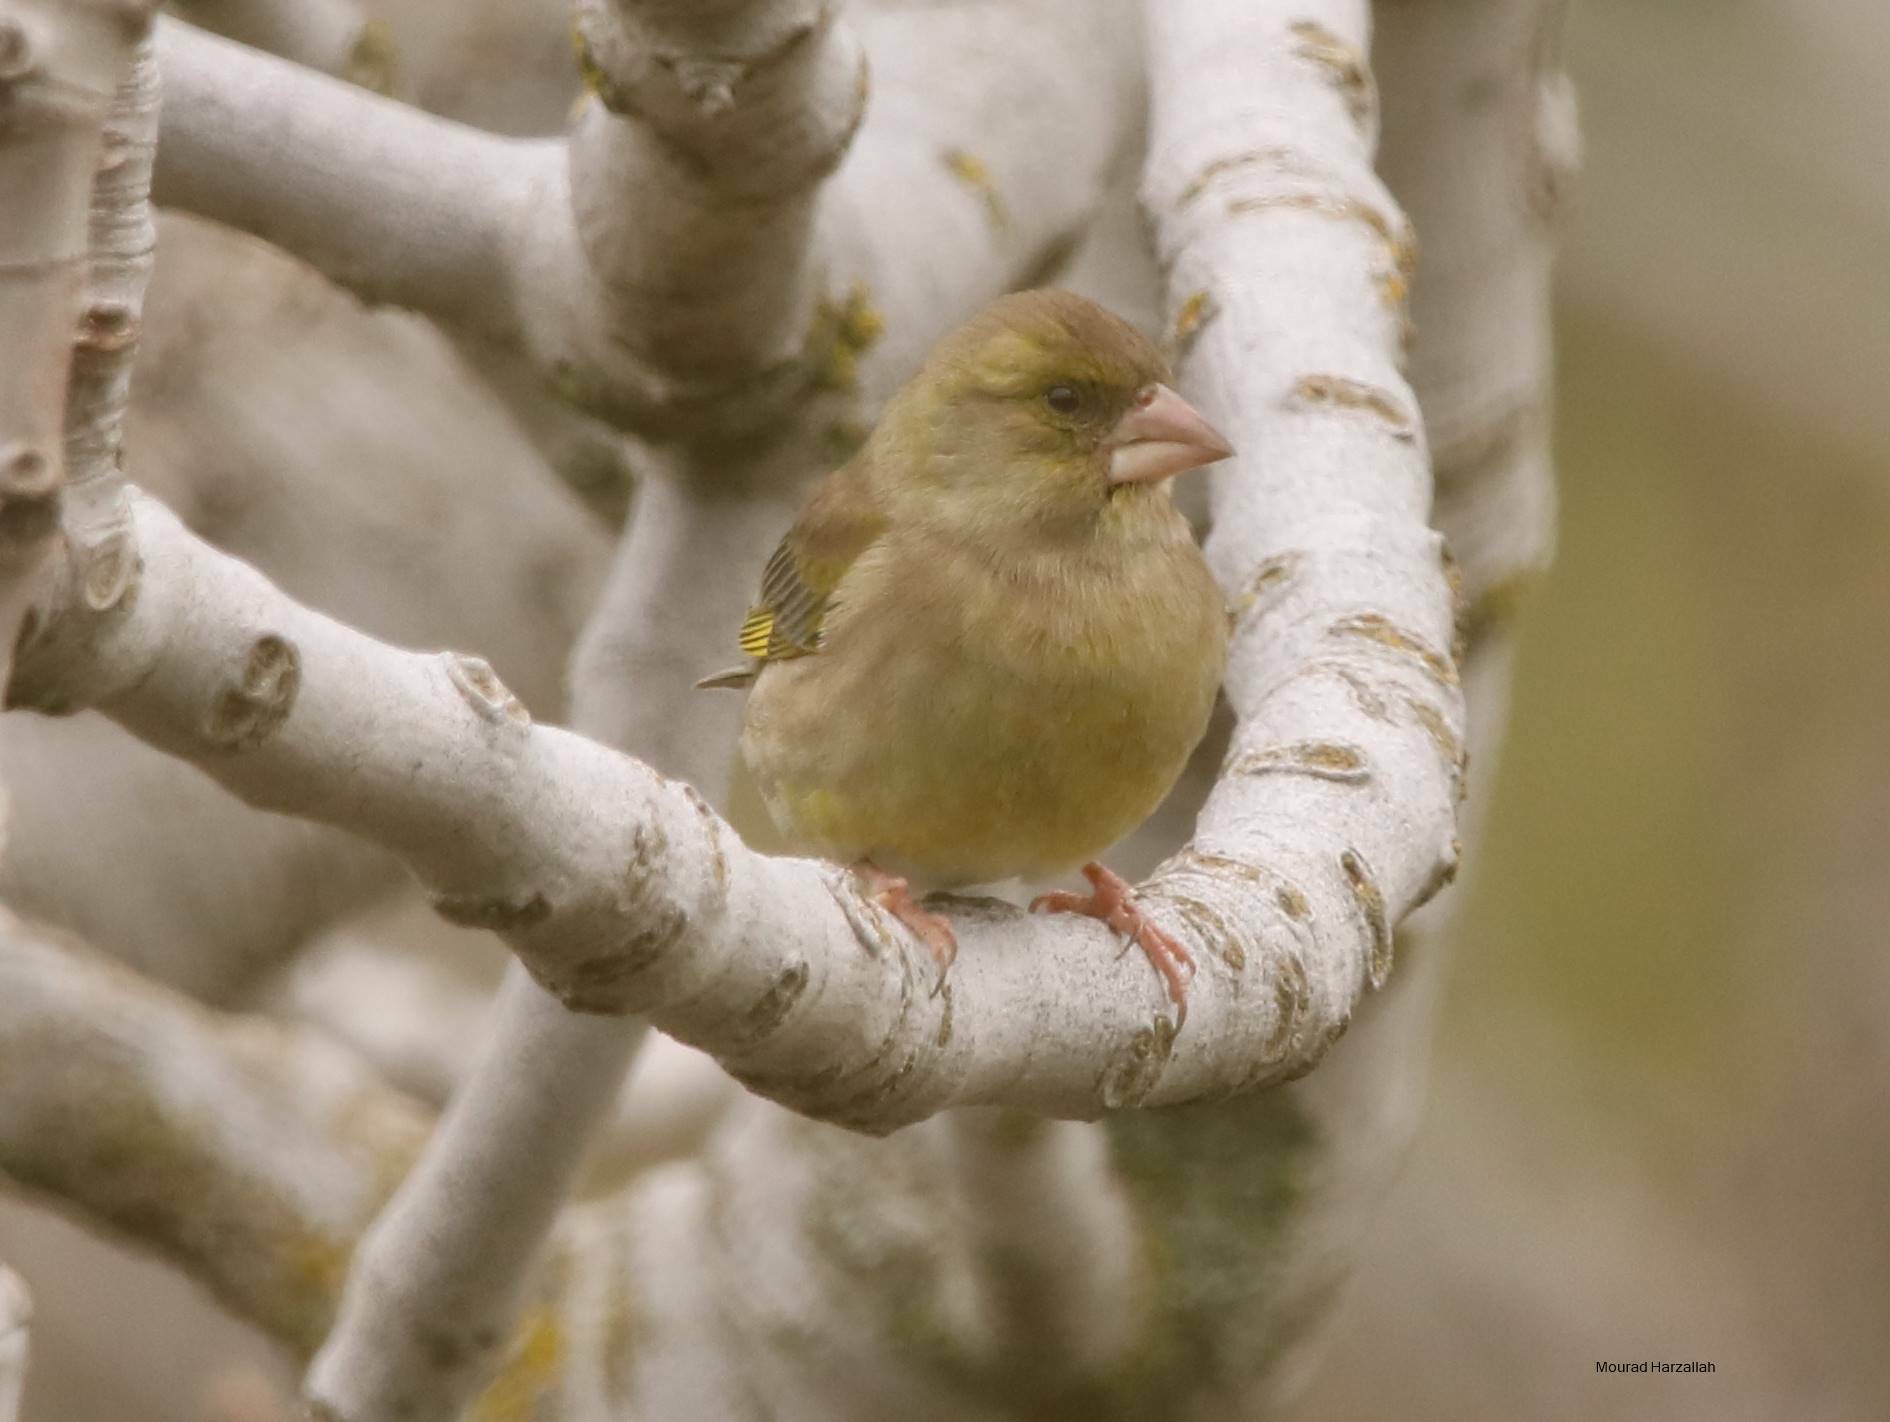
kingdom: Plantae
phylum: Tracheophyta
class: Liliopsida
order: Poales
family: Poaceae
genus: Chloris
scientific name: Chloris chloris
